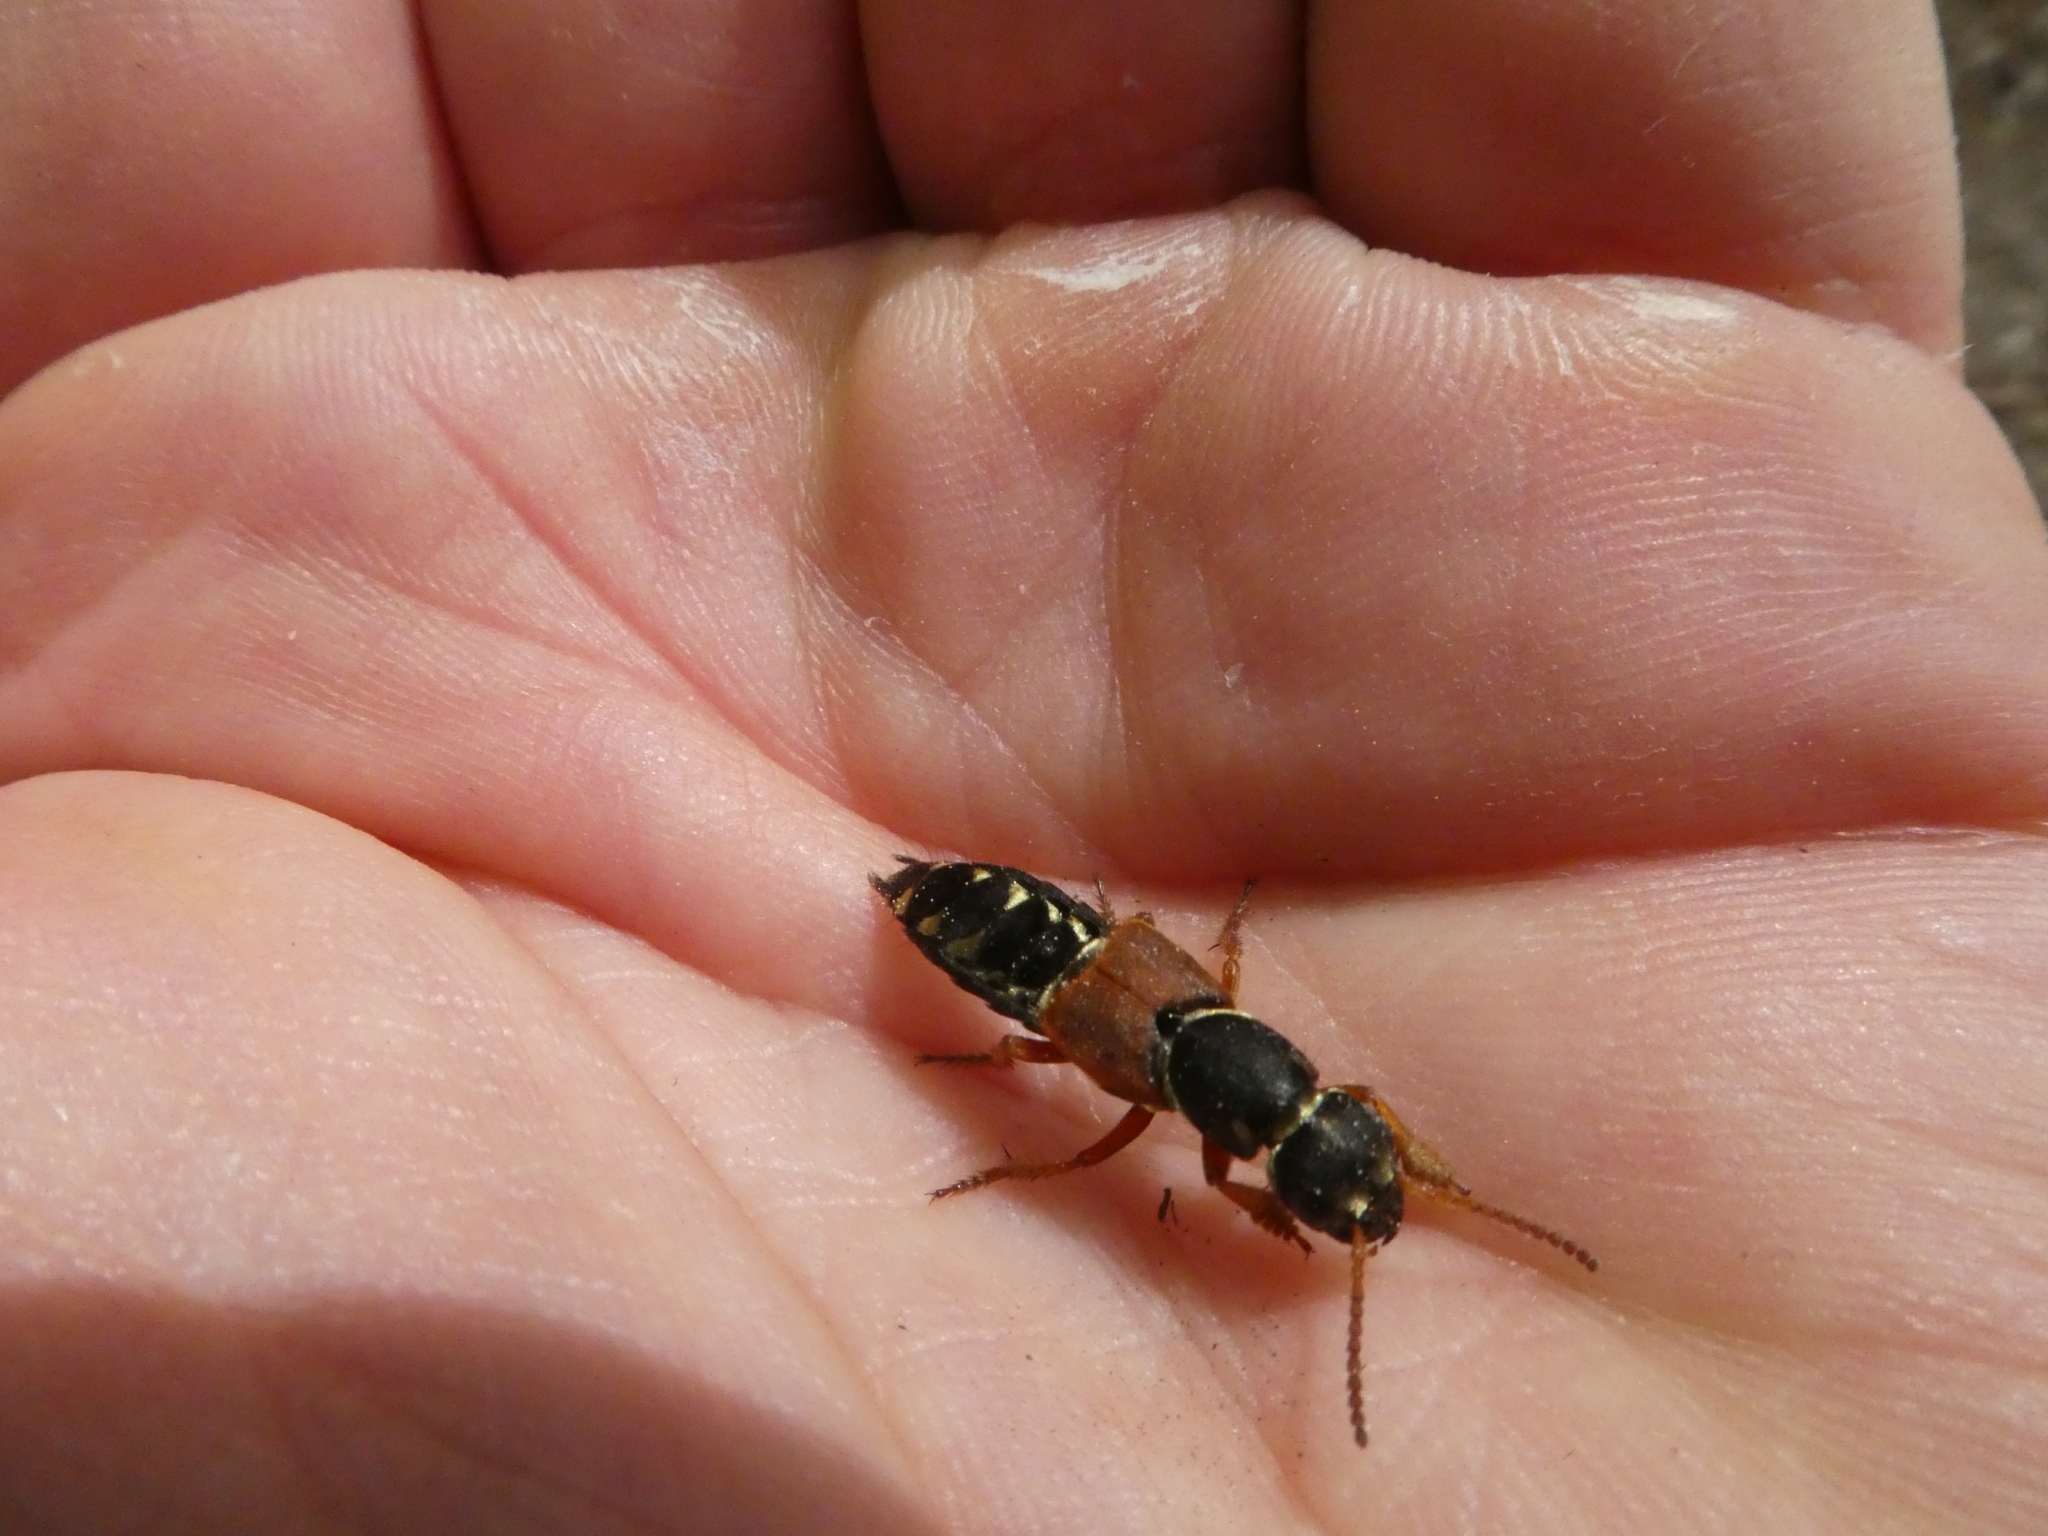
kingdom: Animalia
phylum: Arthropoda
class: Insecta
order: Coleoptera
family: Staphylinidae
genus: Staphylinus
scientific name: Staphylinus caesareus
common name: Staph beetle
